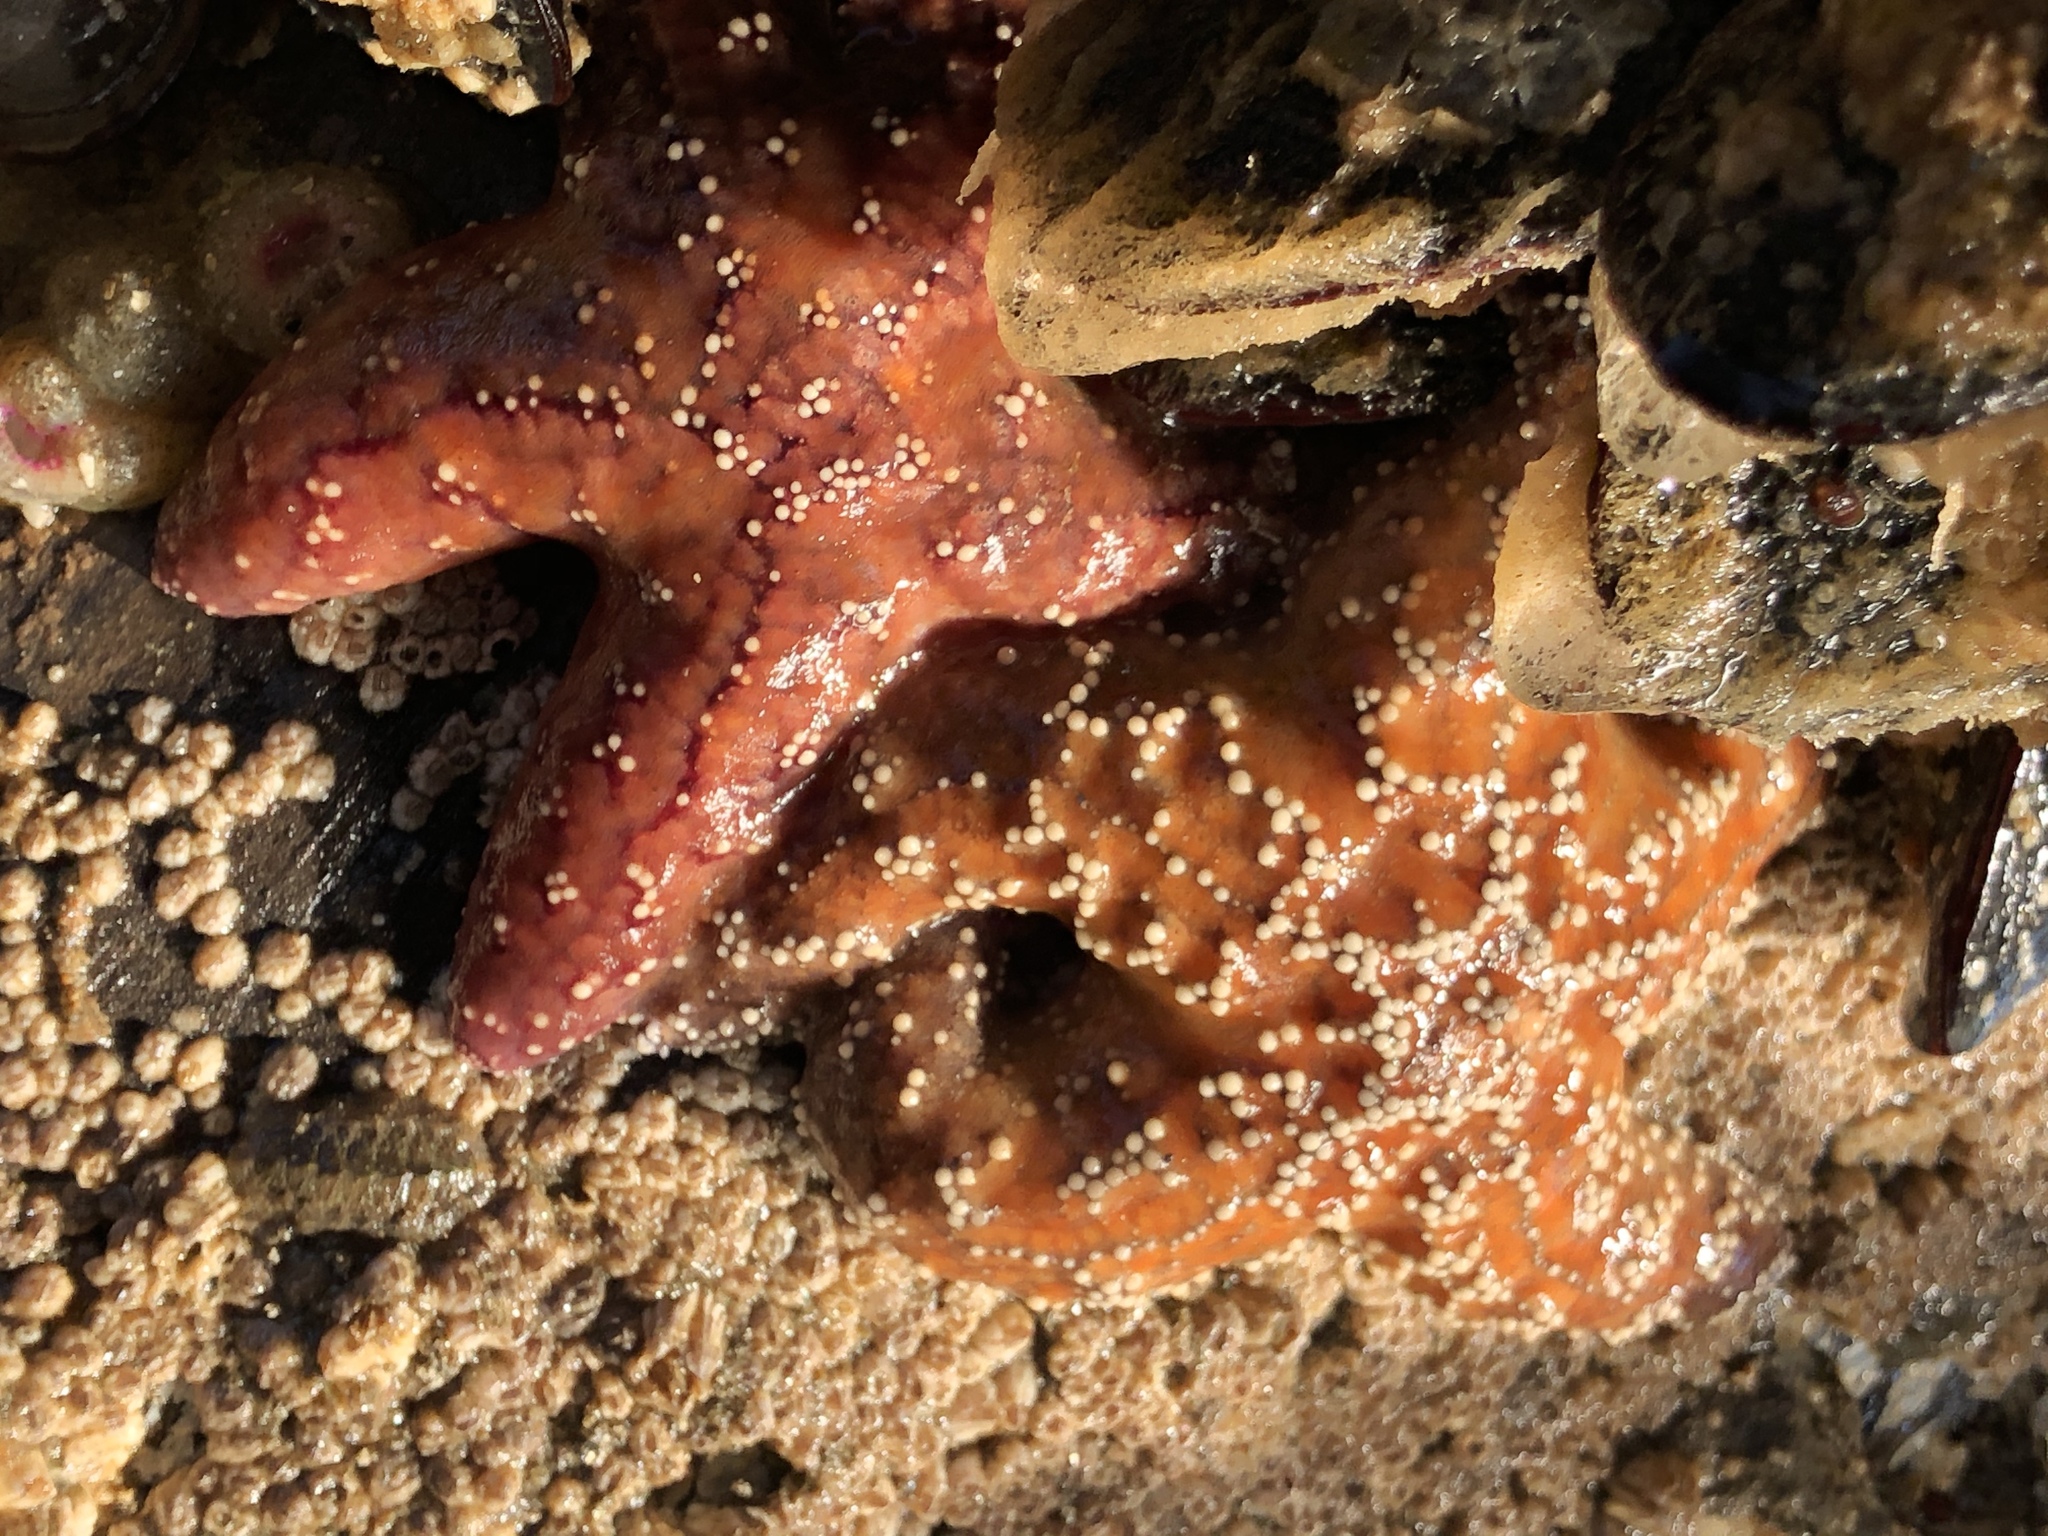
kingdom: Animalia
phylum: Echinodermata
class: Asteroidea
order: Forcipulatida
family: Asteriidae
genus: Pisaster
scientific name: Pisaster ochraceus
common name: Ochre stars
